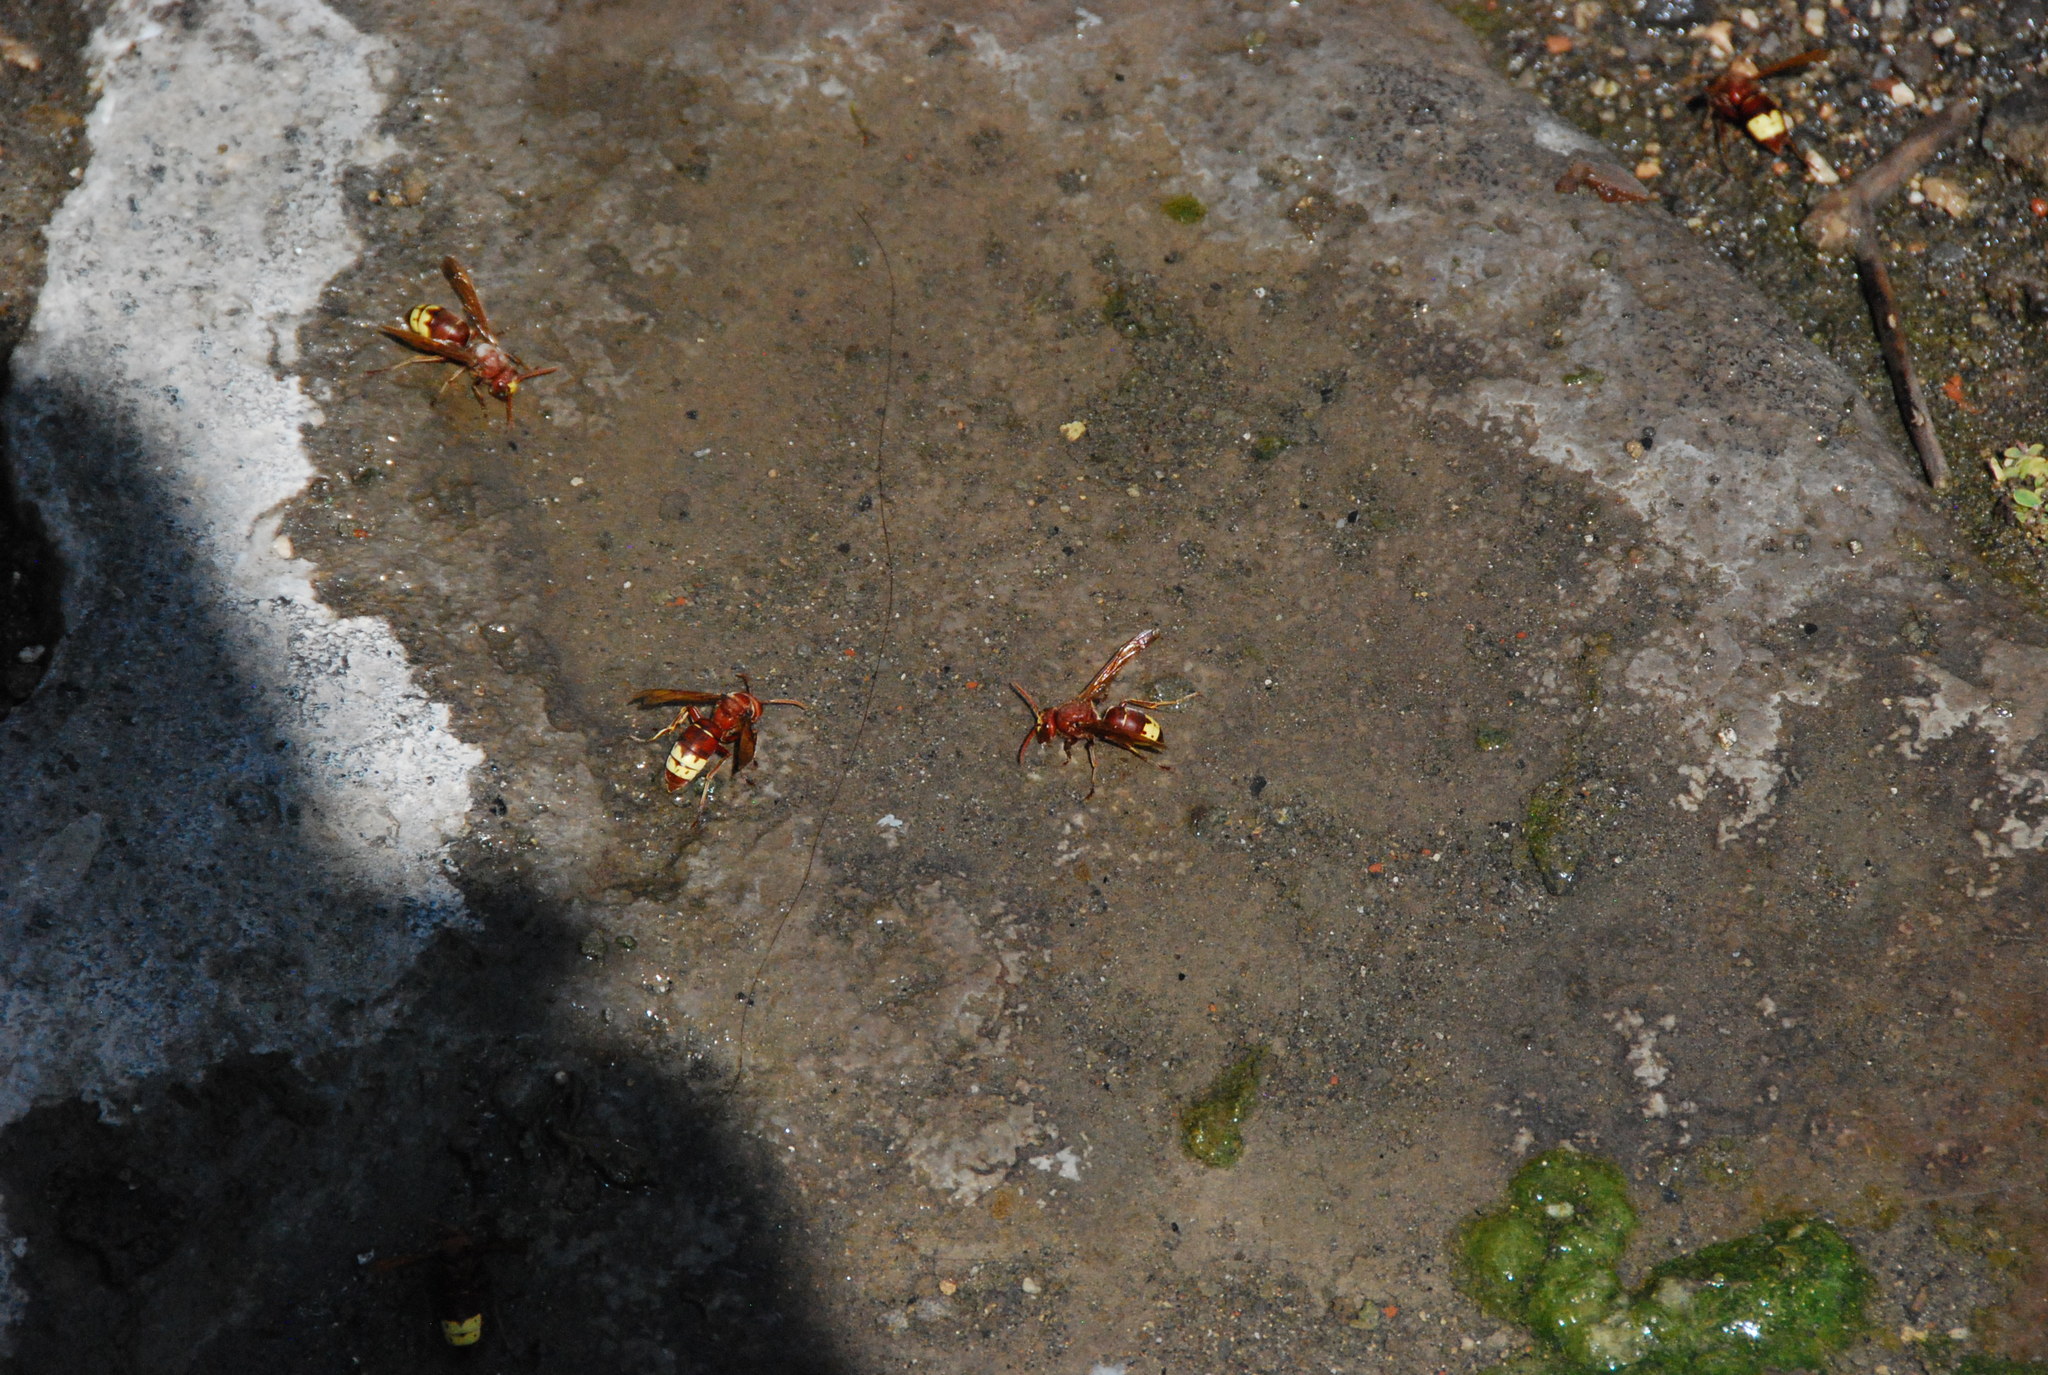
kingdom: Animalia
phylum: Arthropoda
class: Insecta
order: Hymenoptera
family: Vespidae
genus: Vespa
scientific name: Vespa orientalis
